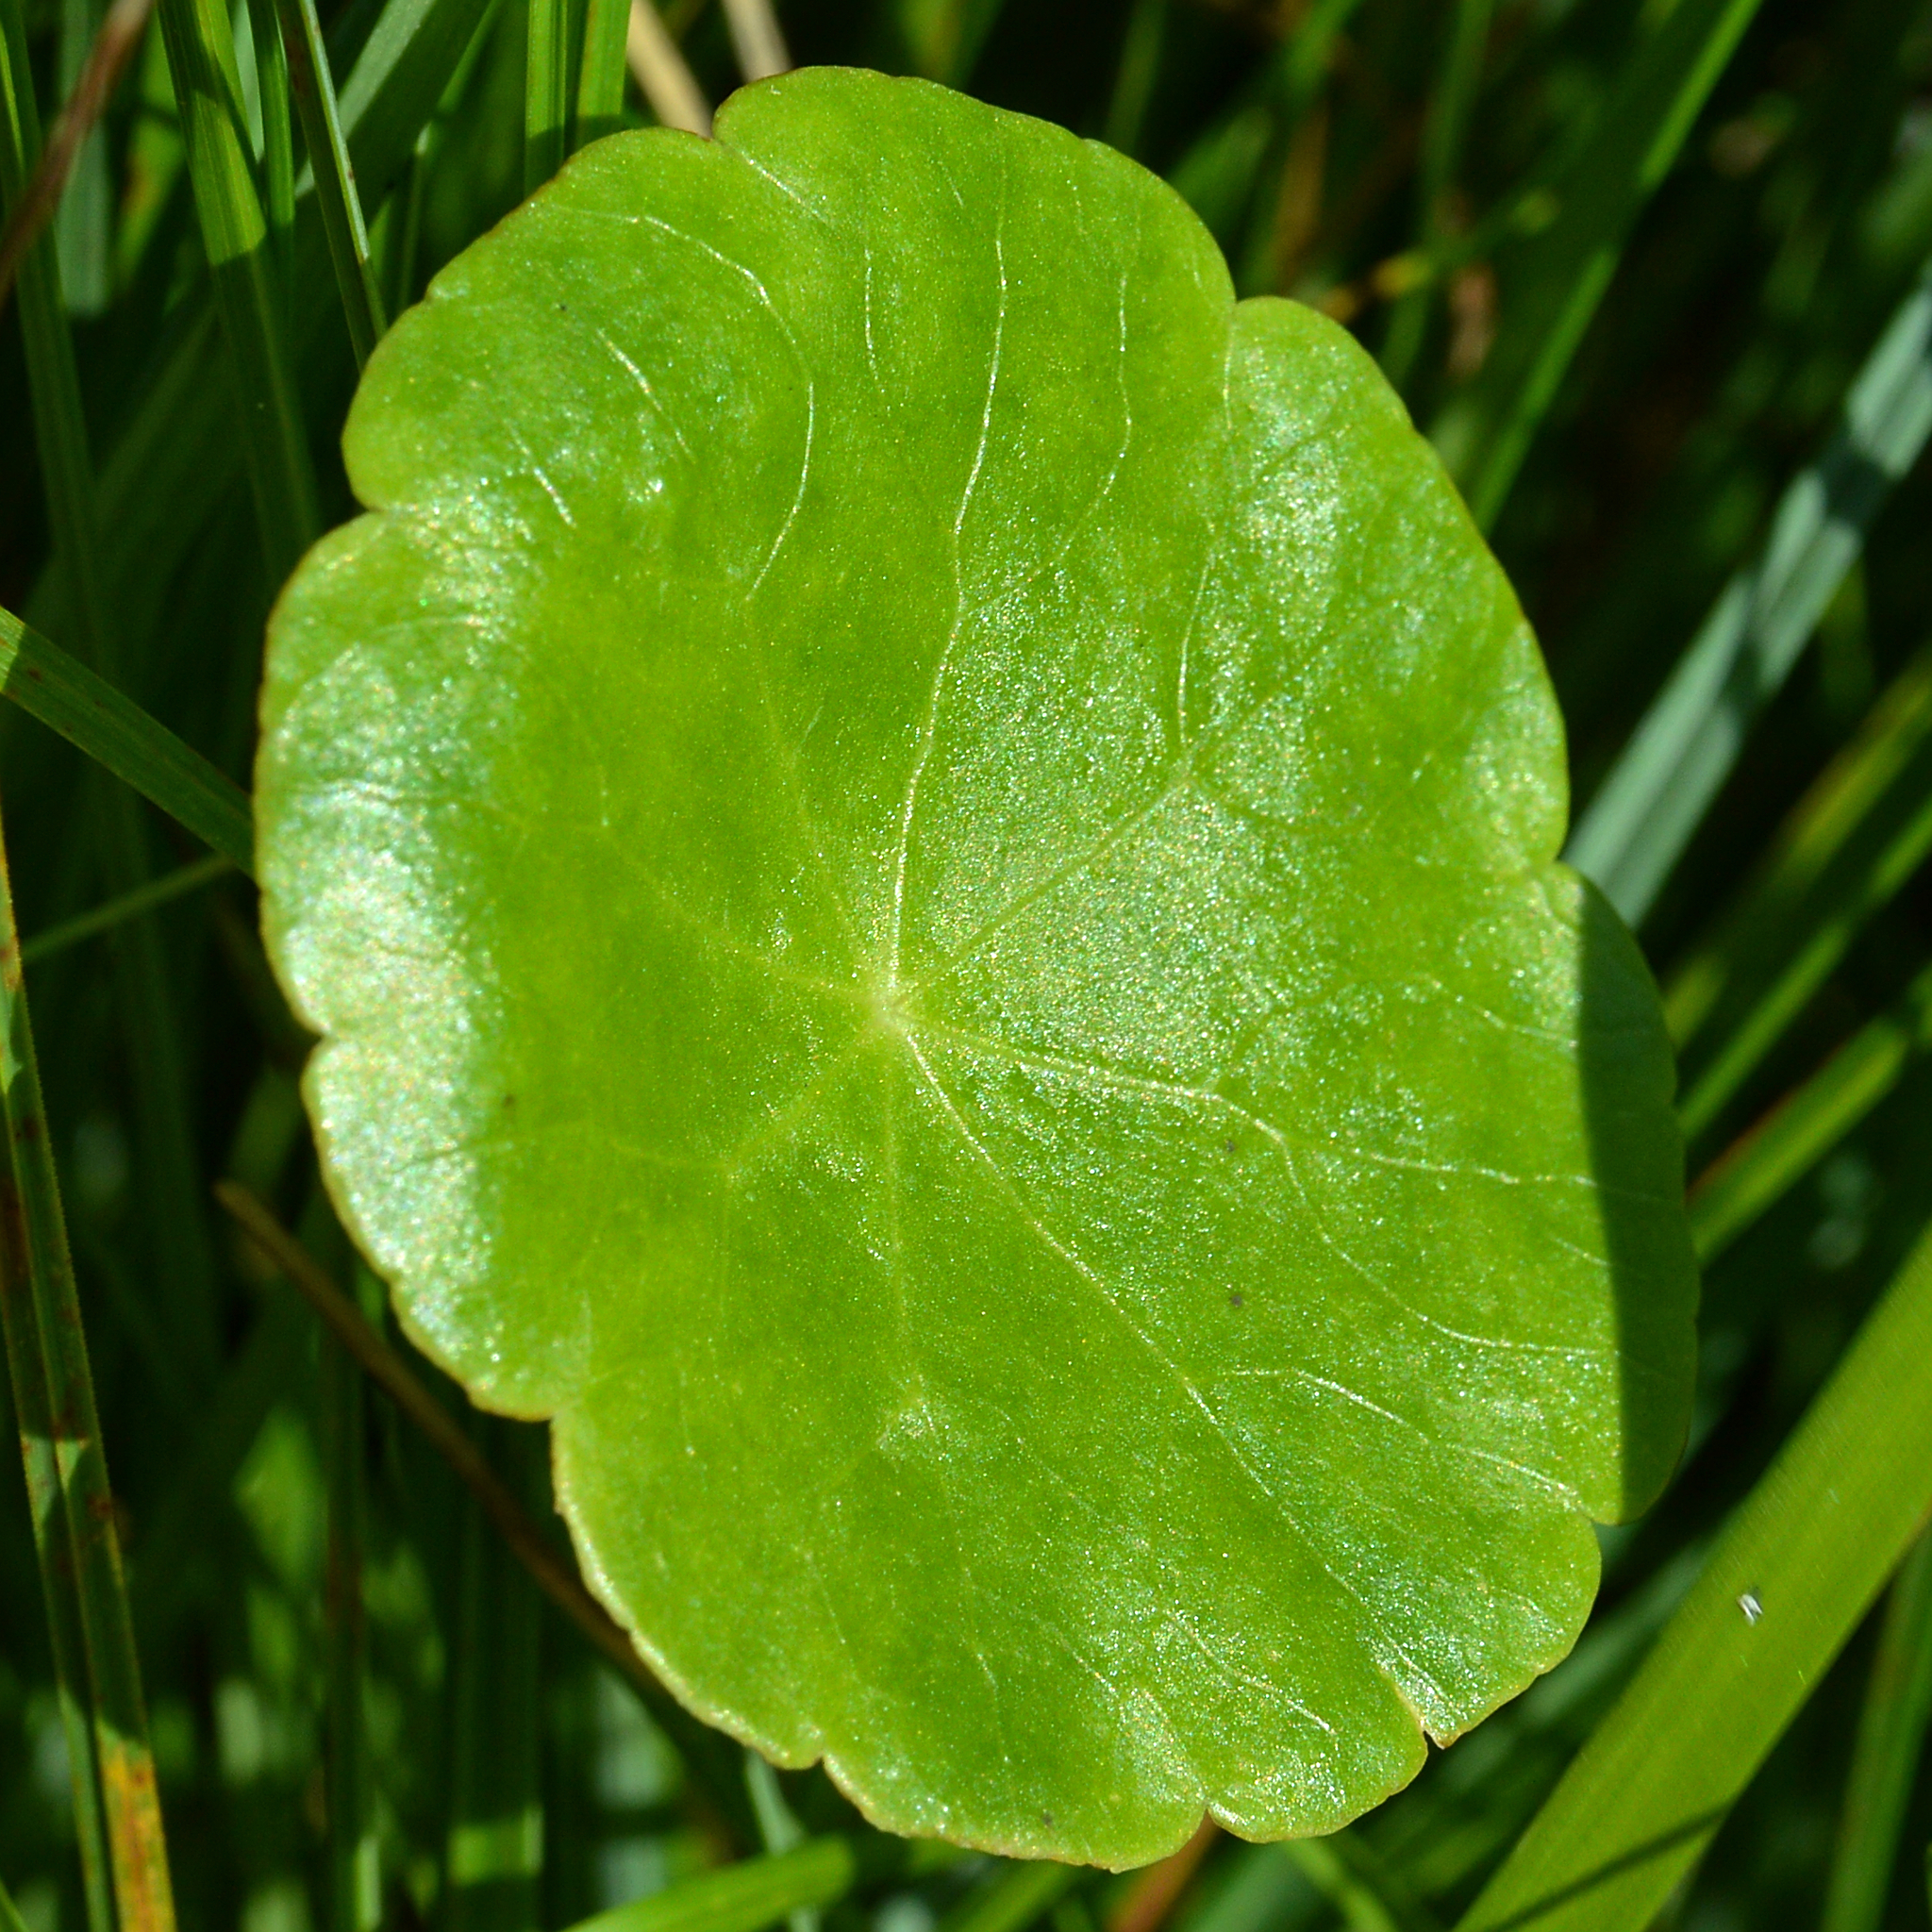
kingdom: Plantae
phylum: Tracheophyta
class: Magnoliopsida
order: Apiales
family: Araliaceae
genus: Hydrocotyle
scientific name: Hydrocotyle vulgaris
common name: Marsh pennywort
